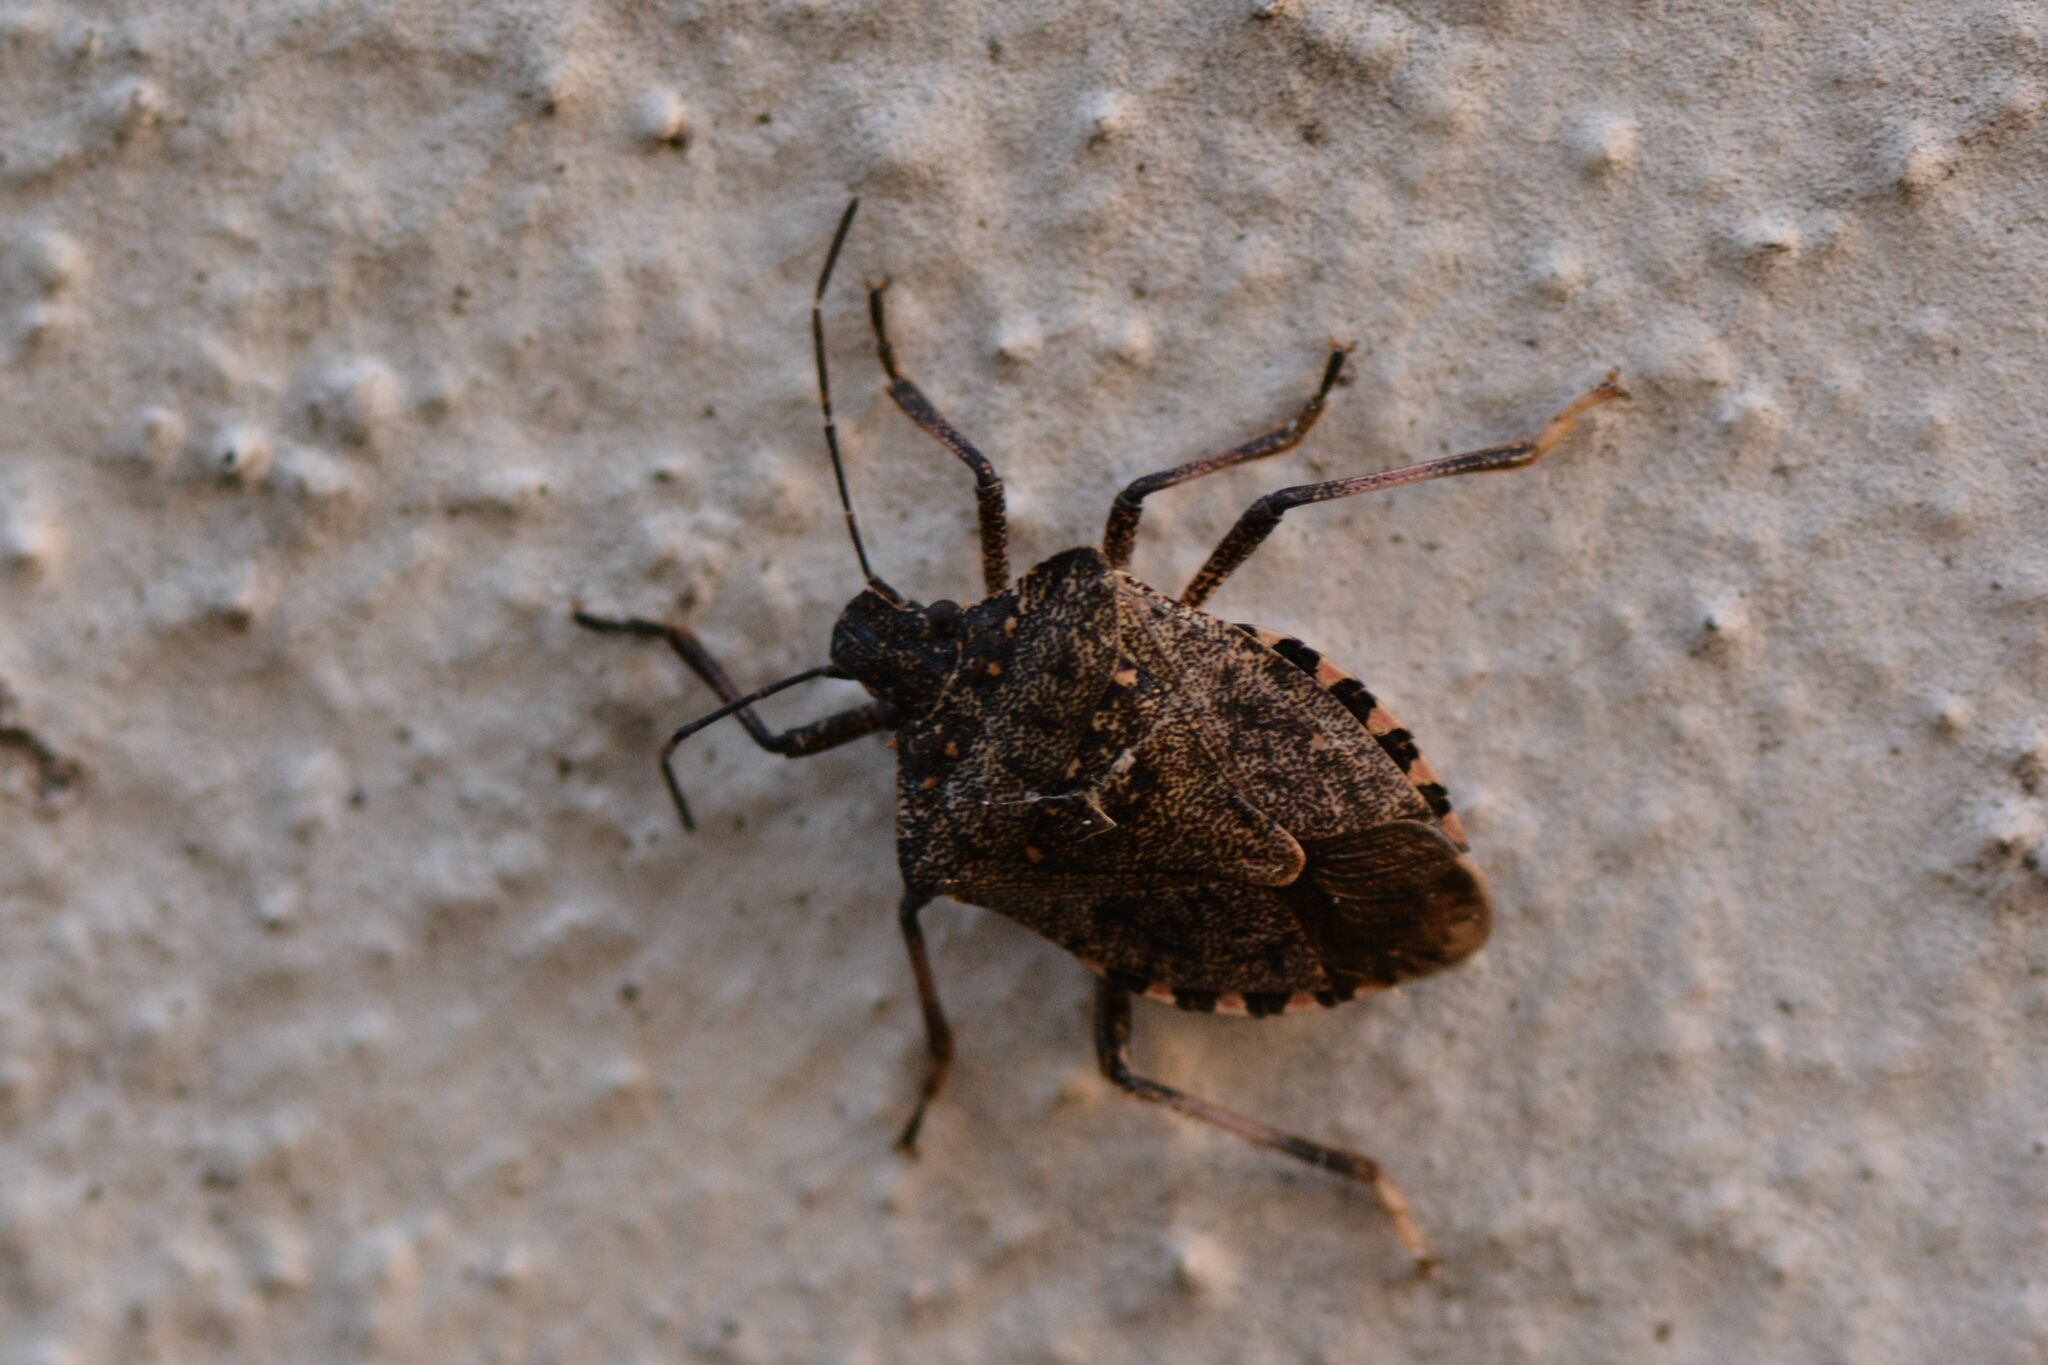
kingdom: Animalia
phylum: Arthropoda
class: Insecta
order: Hemiptera
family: Pentatomidae
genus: Halyomorpha
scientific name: Halyomorpha halys
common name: Brown marmorated stink bug
